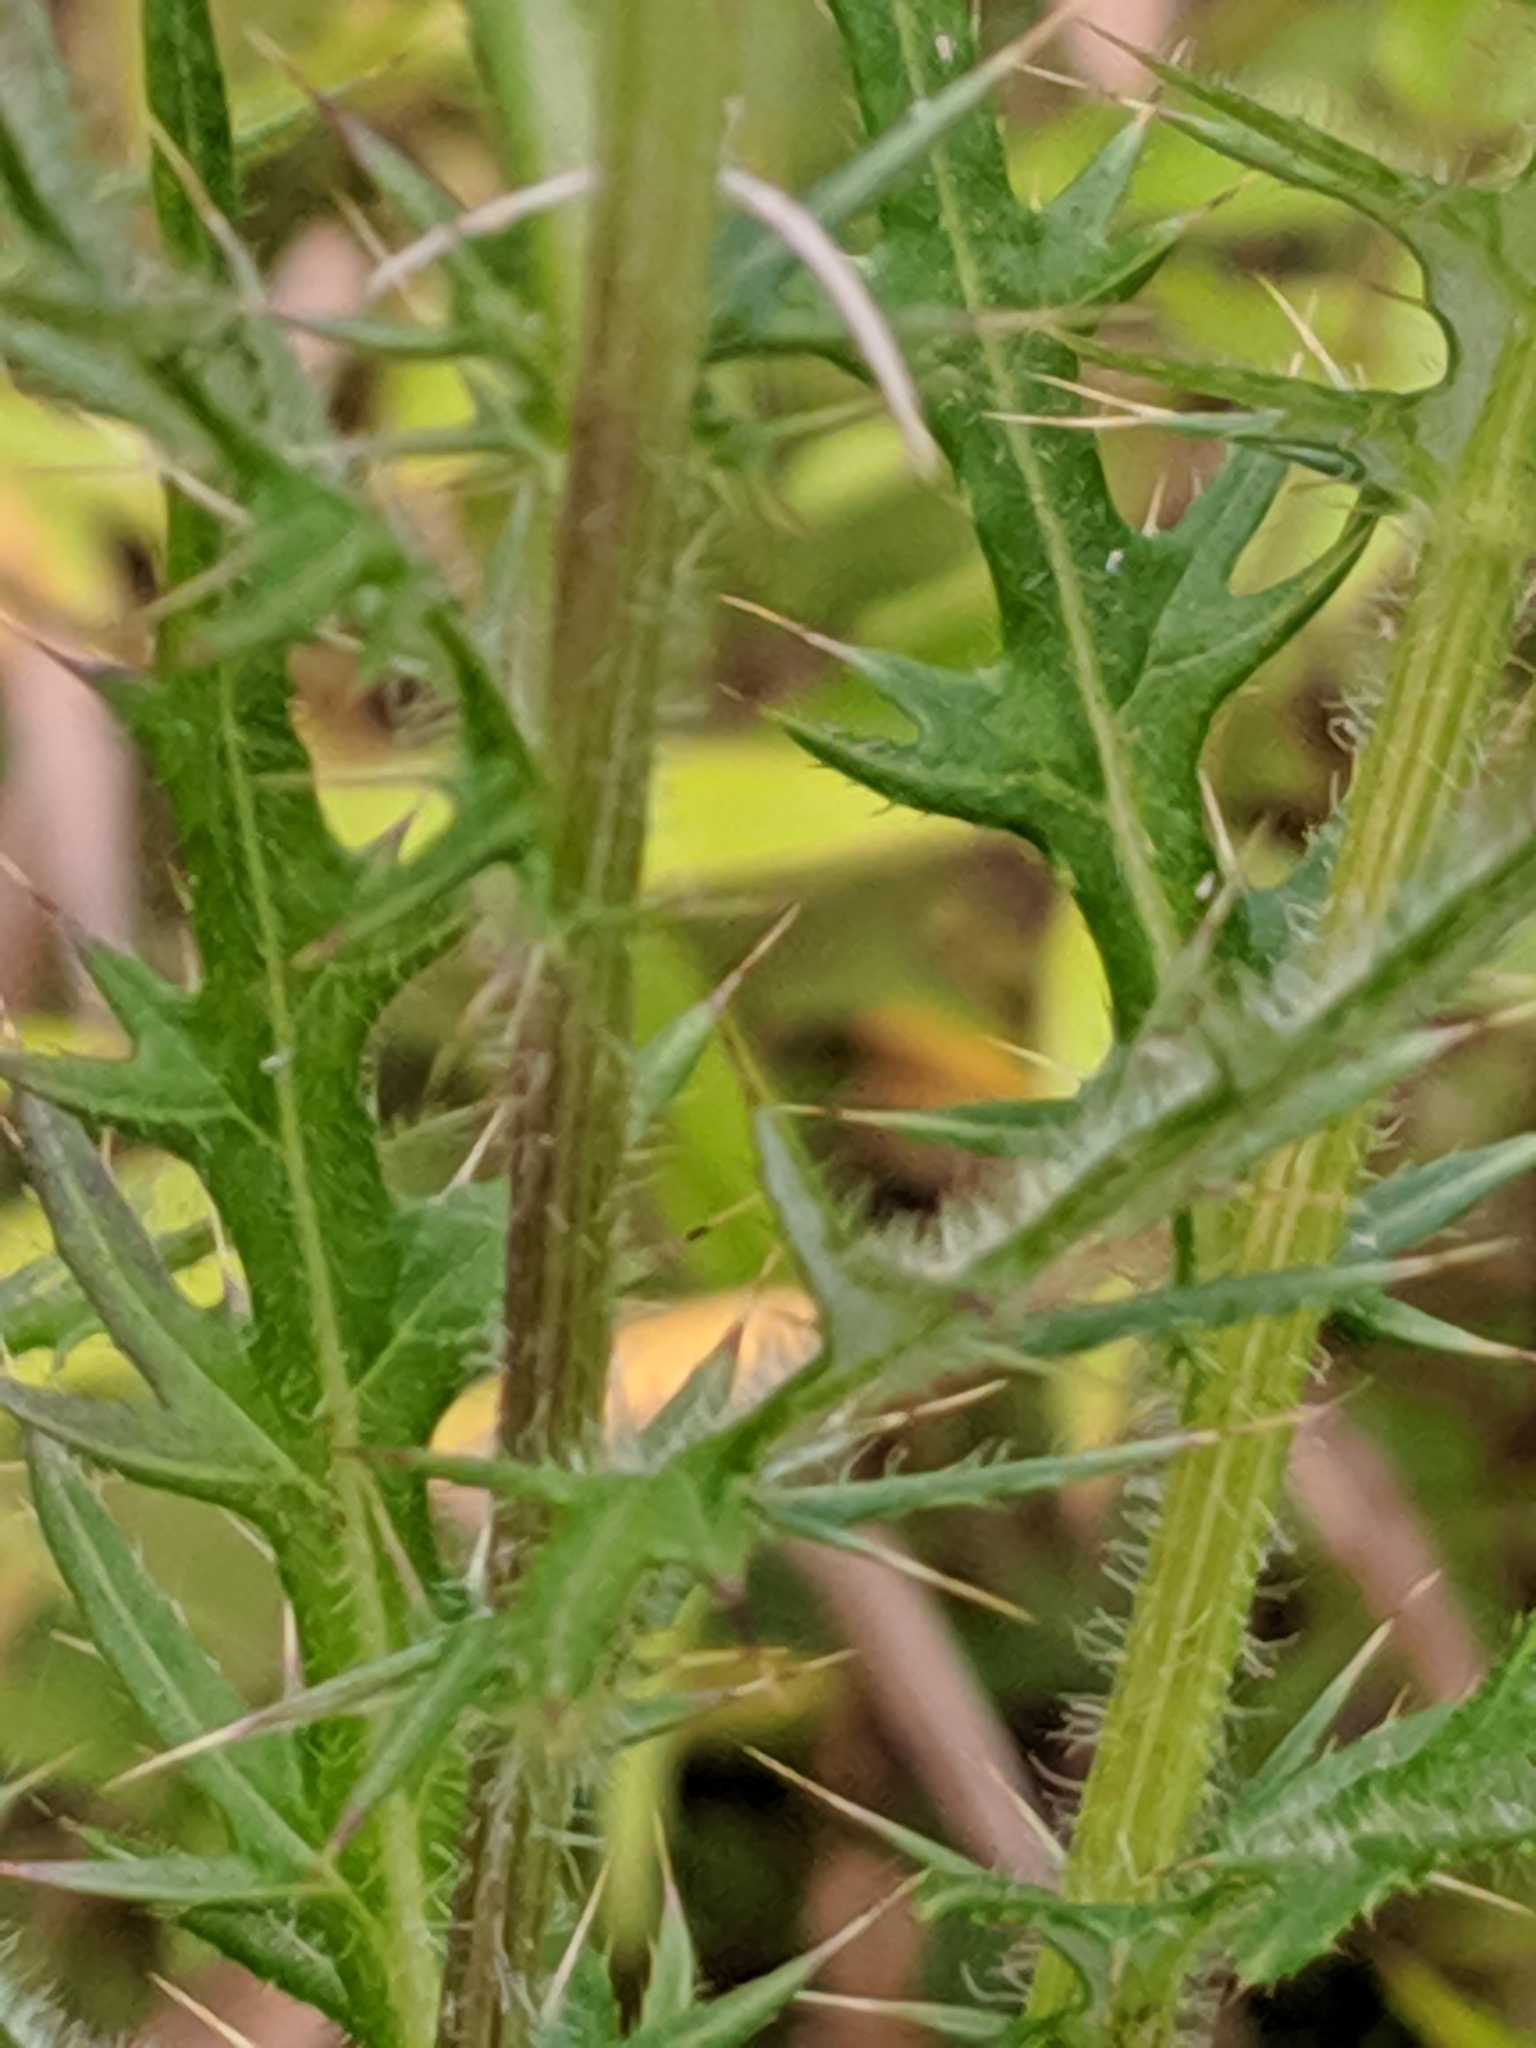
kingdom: Plantae
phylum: Tracheophyta
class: Magnoliopsida
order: Asterales
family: Asteraceae
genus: Cirsium
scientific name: Cirsium discolor
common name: Field thistle
